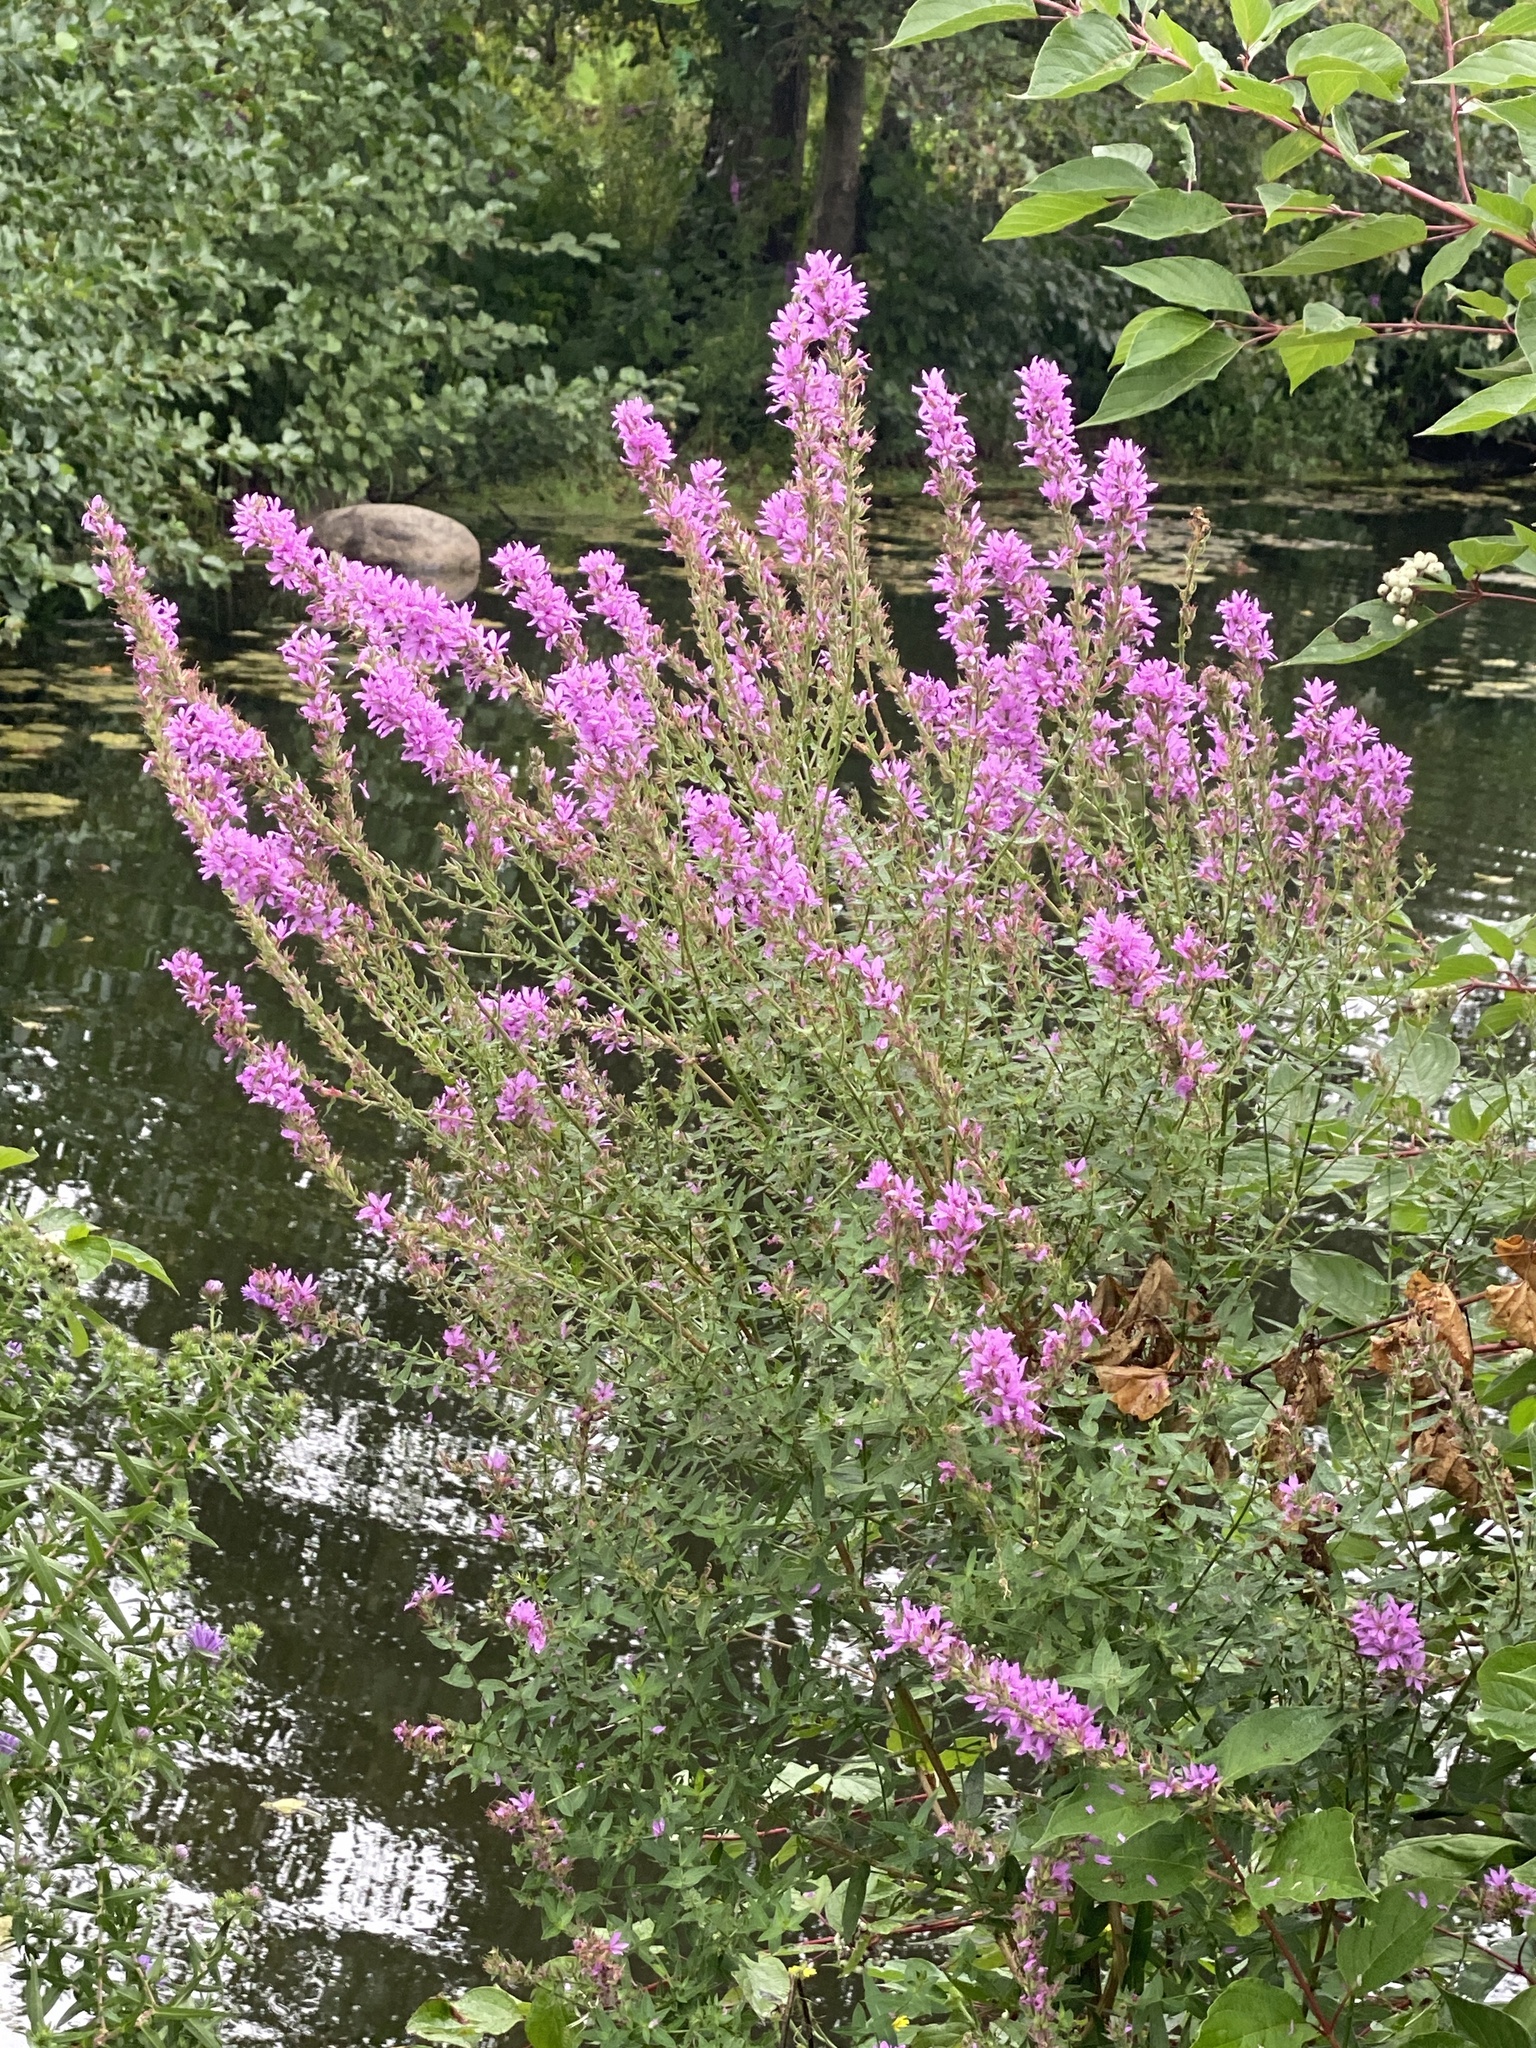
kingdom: Plantae
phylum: Tracheophyta
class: Magnoliopsida
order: Myrtales
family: Lythraceae
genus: Lythrum
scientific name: Lythrum salicaria
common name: Purple loosestrife
